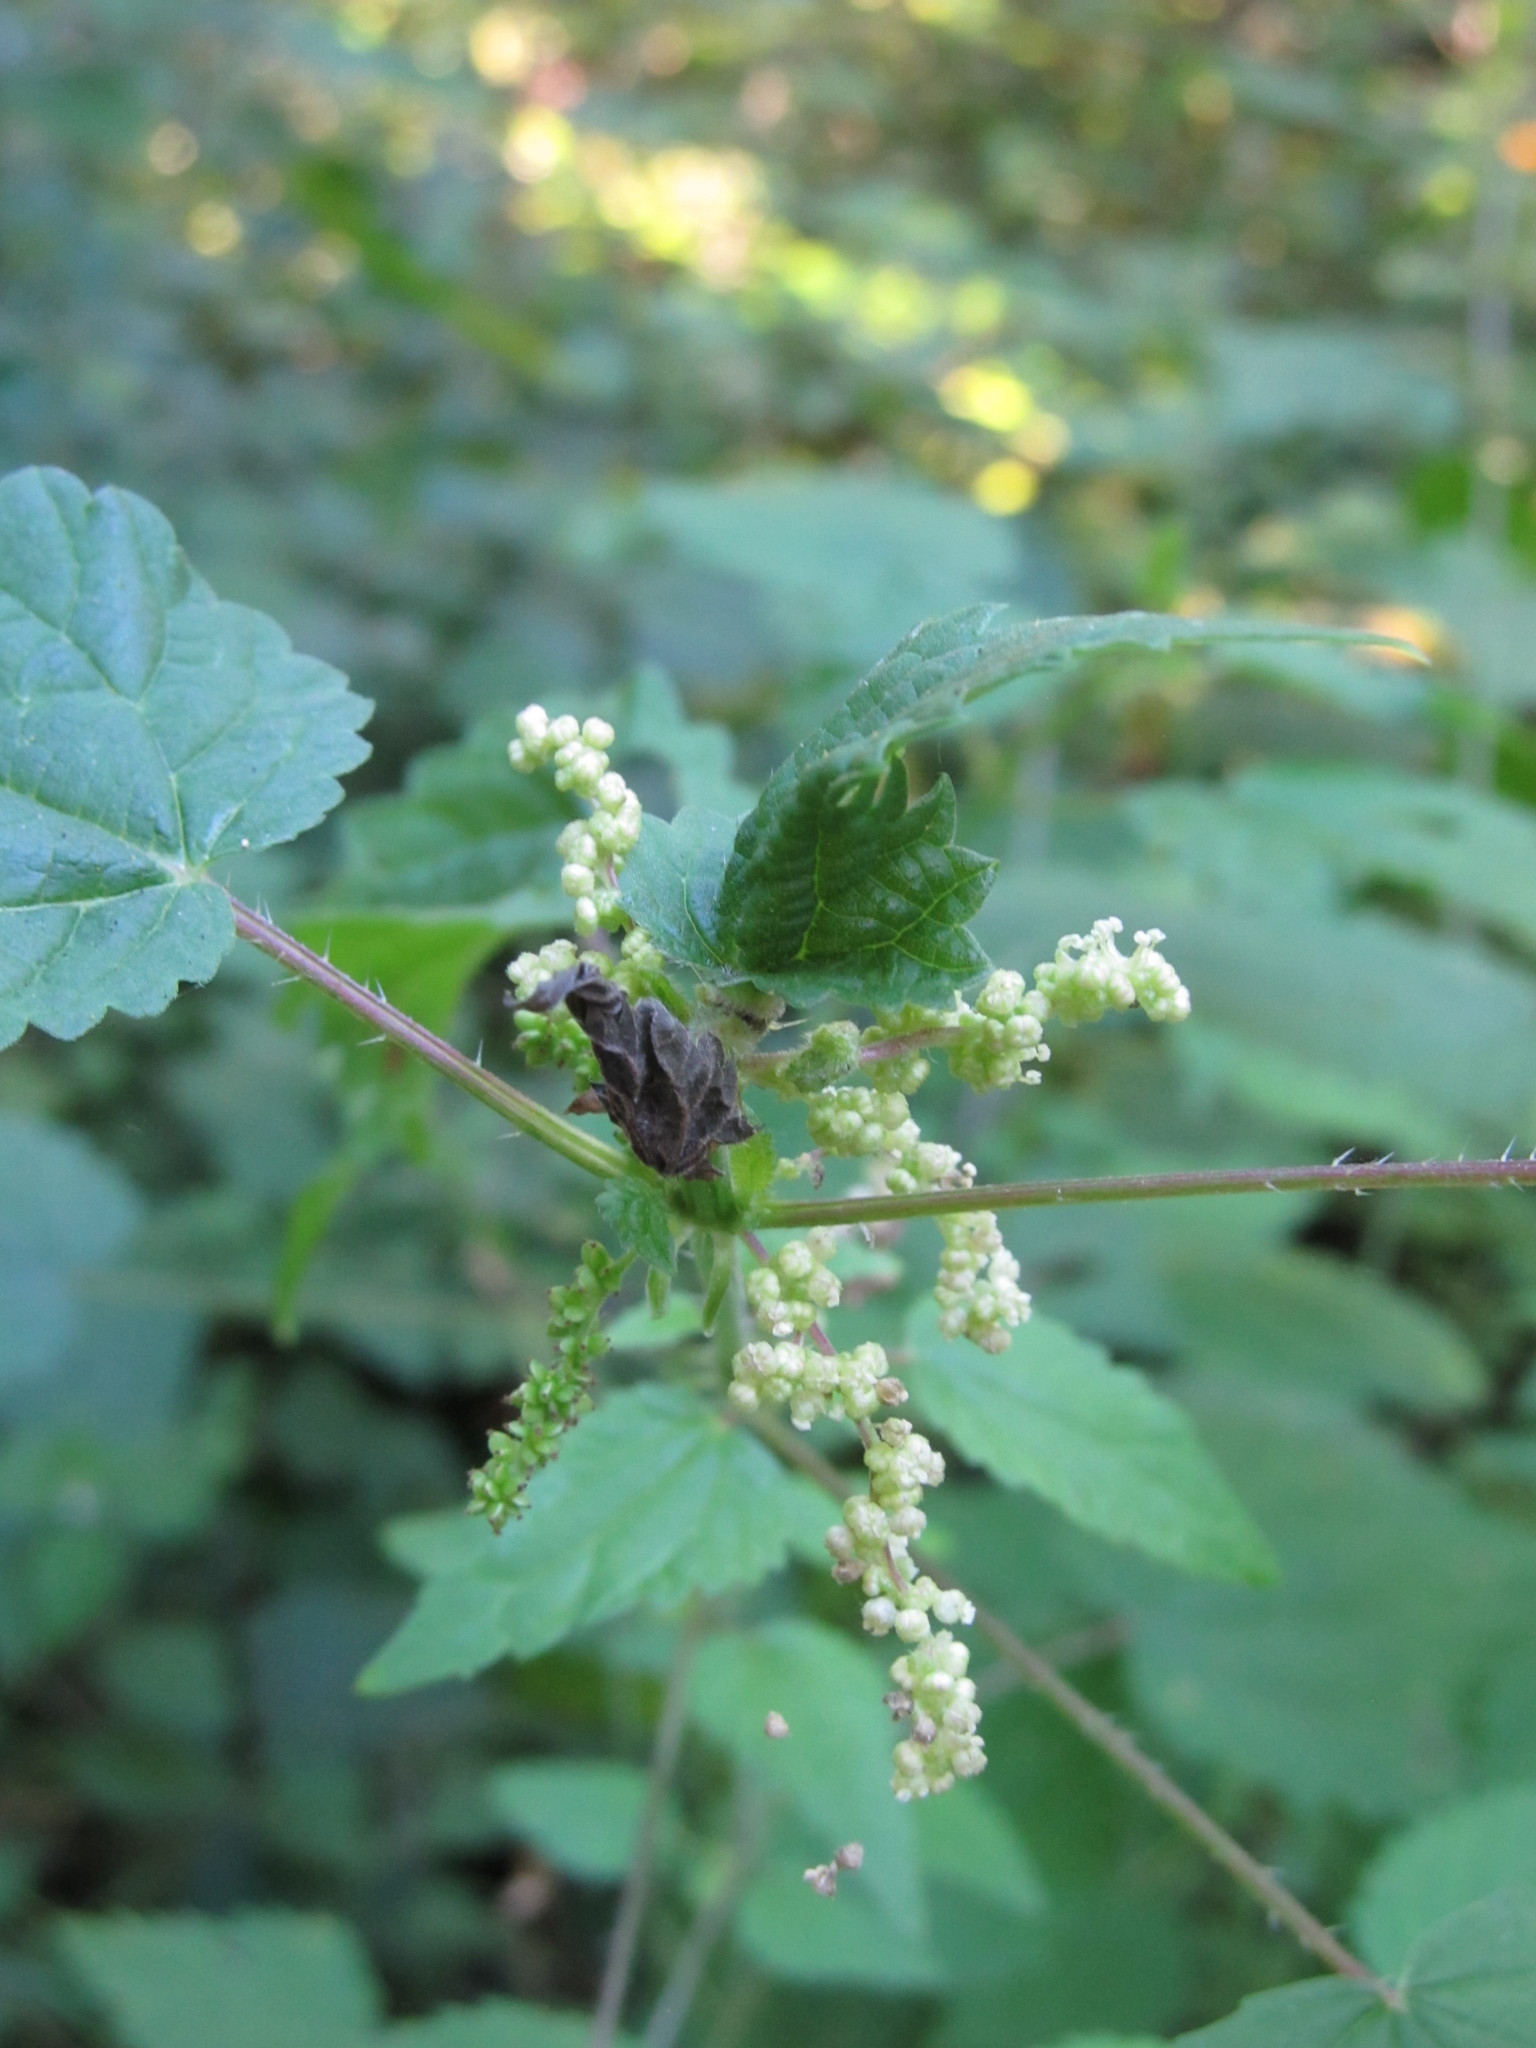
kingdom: Plantae
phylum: Tracheophyta
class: Magnoliopsida
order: Rosales
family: Urticaceae
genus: Urtica
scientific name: Urtica dioica
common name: Common nettle
